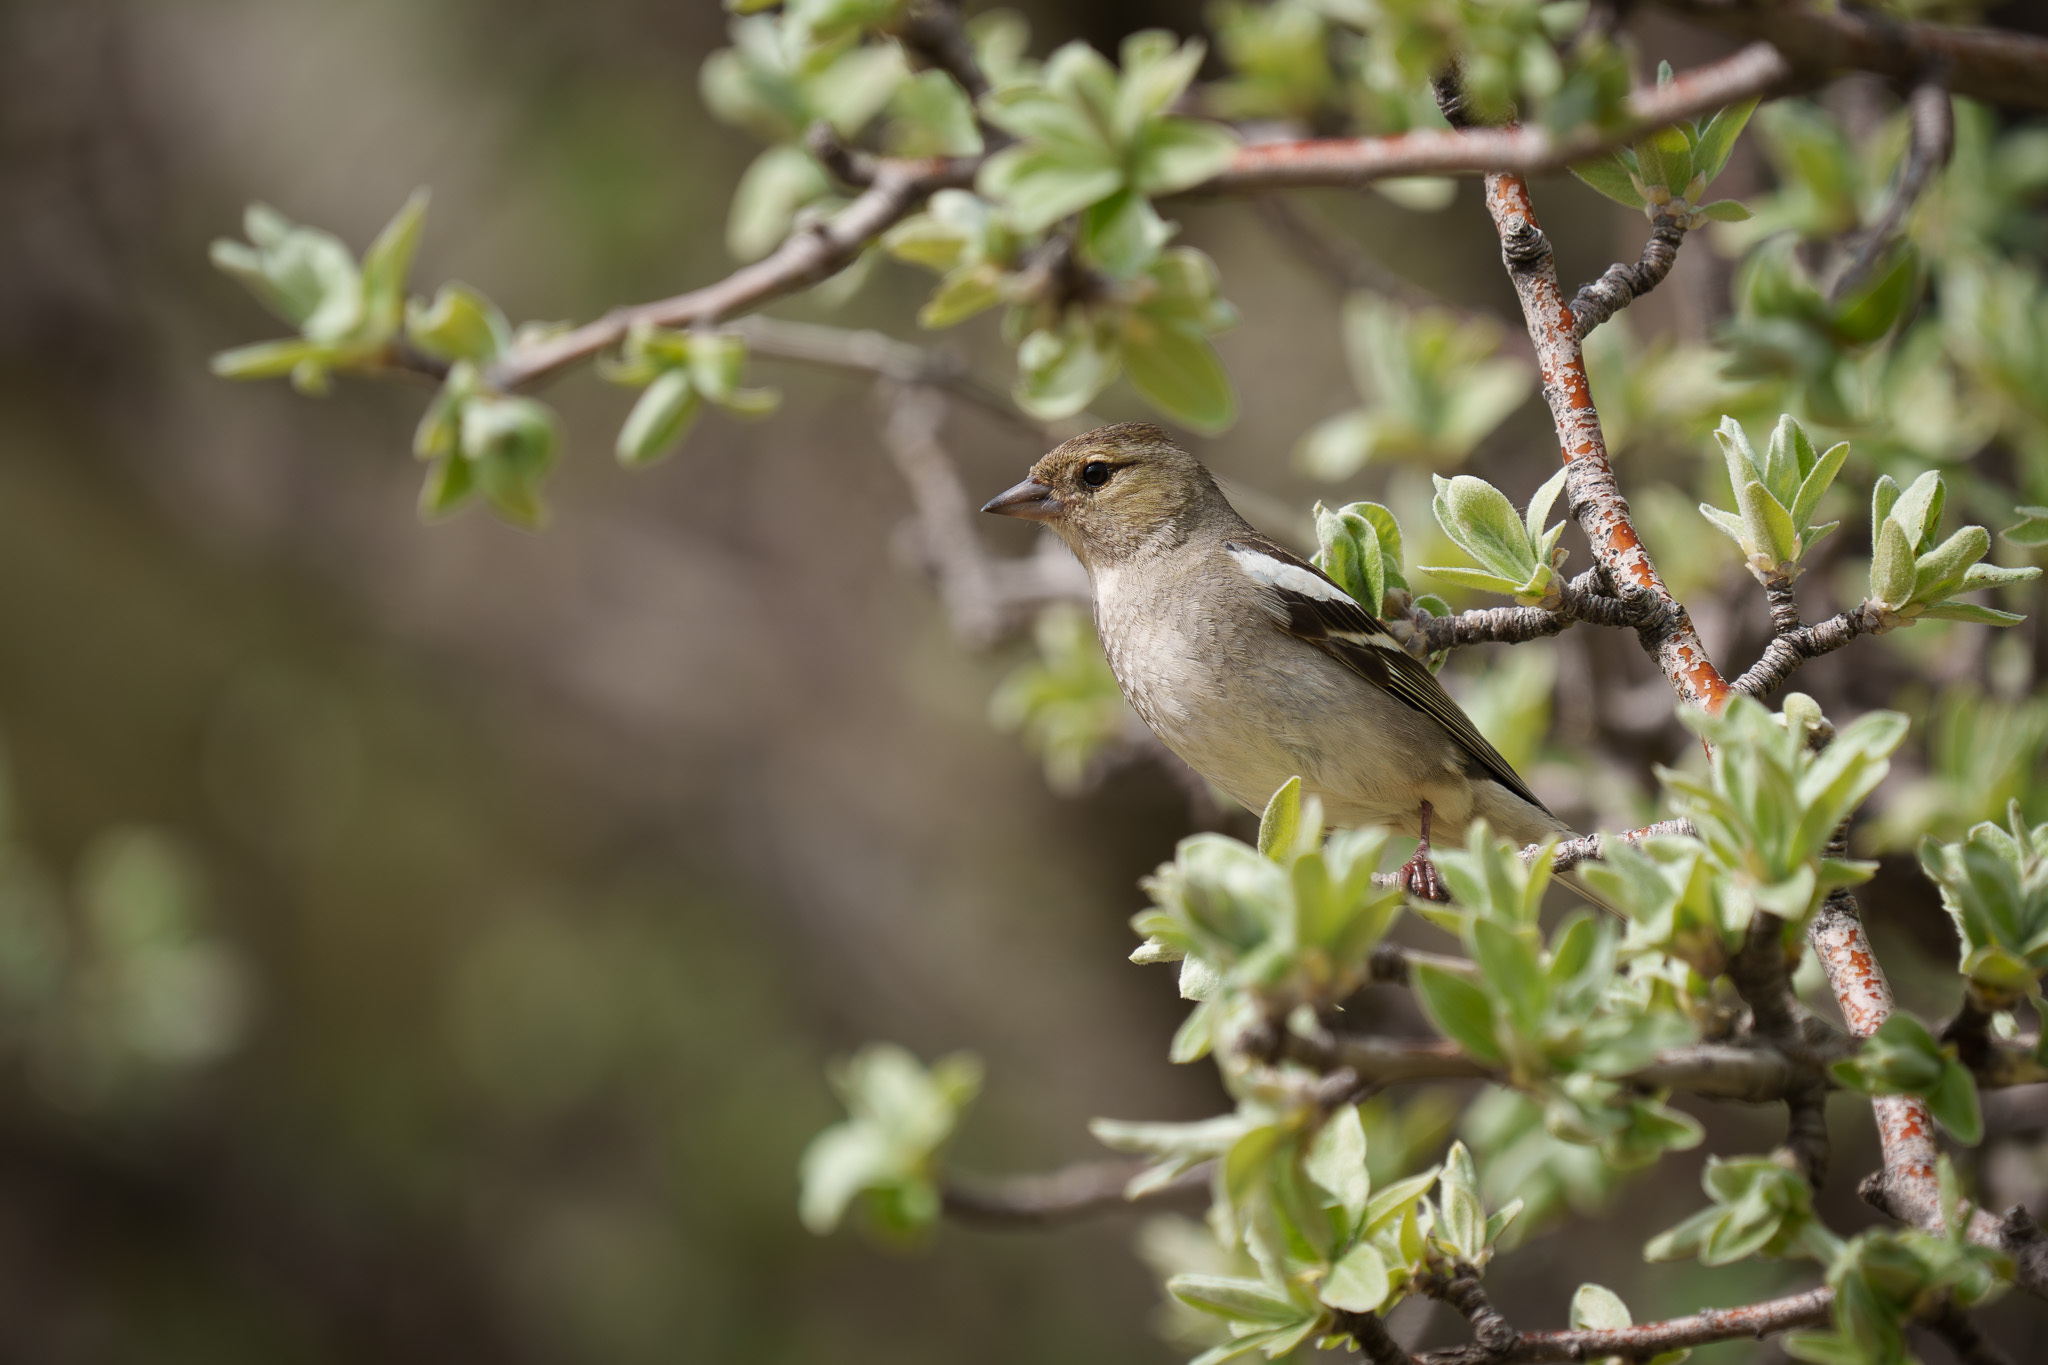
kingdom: Animalia
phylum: Chordata
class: Aves
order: Passeriformes
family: Fringillidae
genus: Fringilla
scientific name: Fringilla coelebs
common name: Common chaffinch
